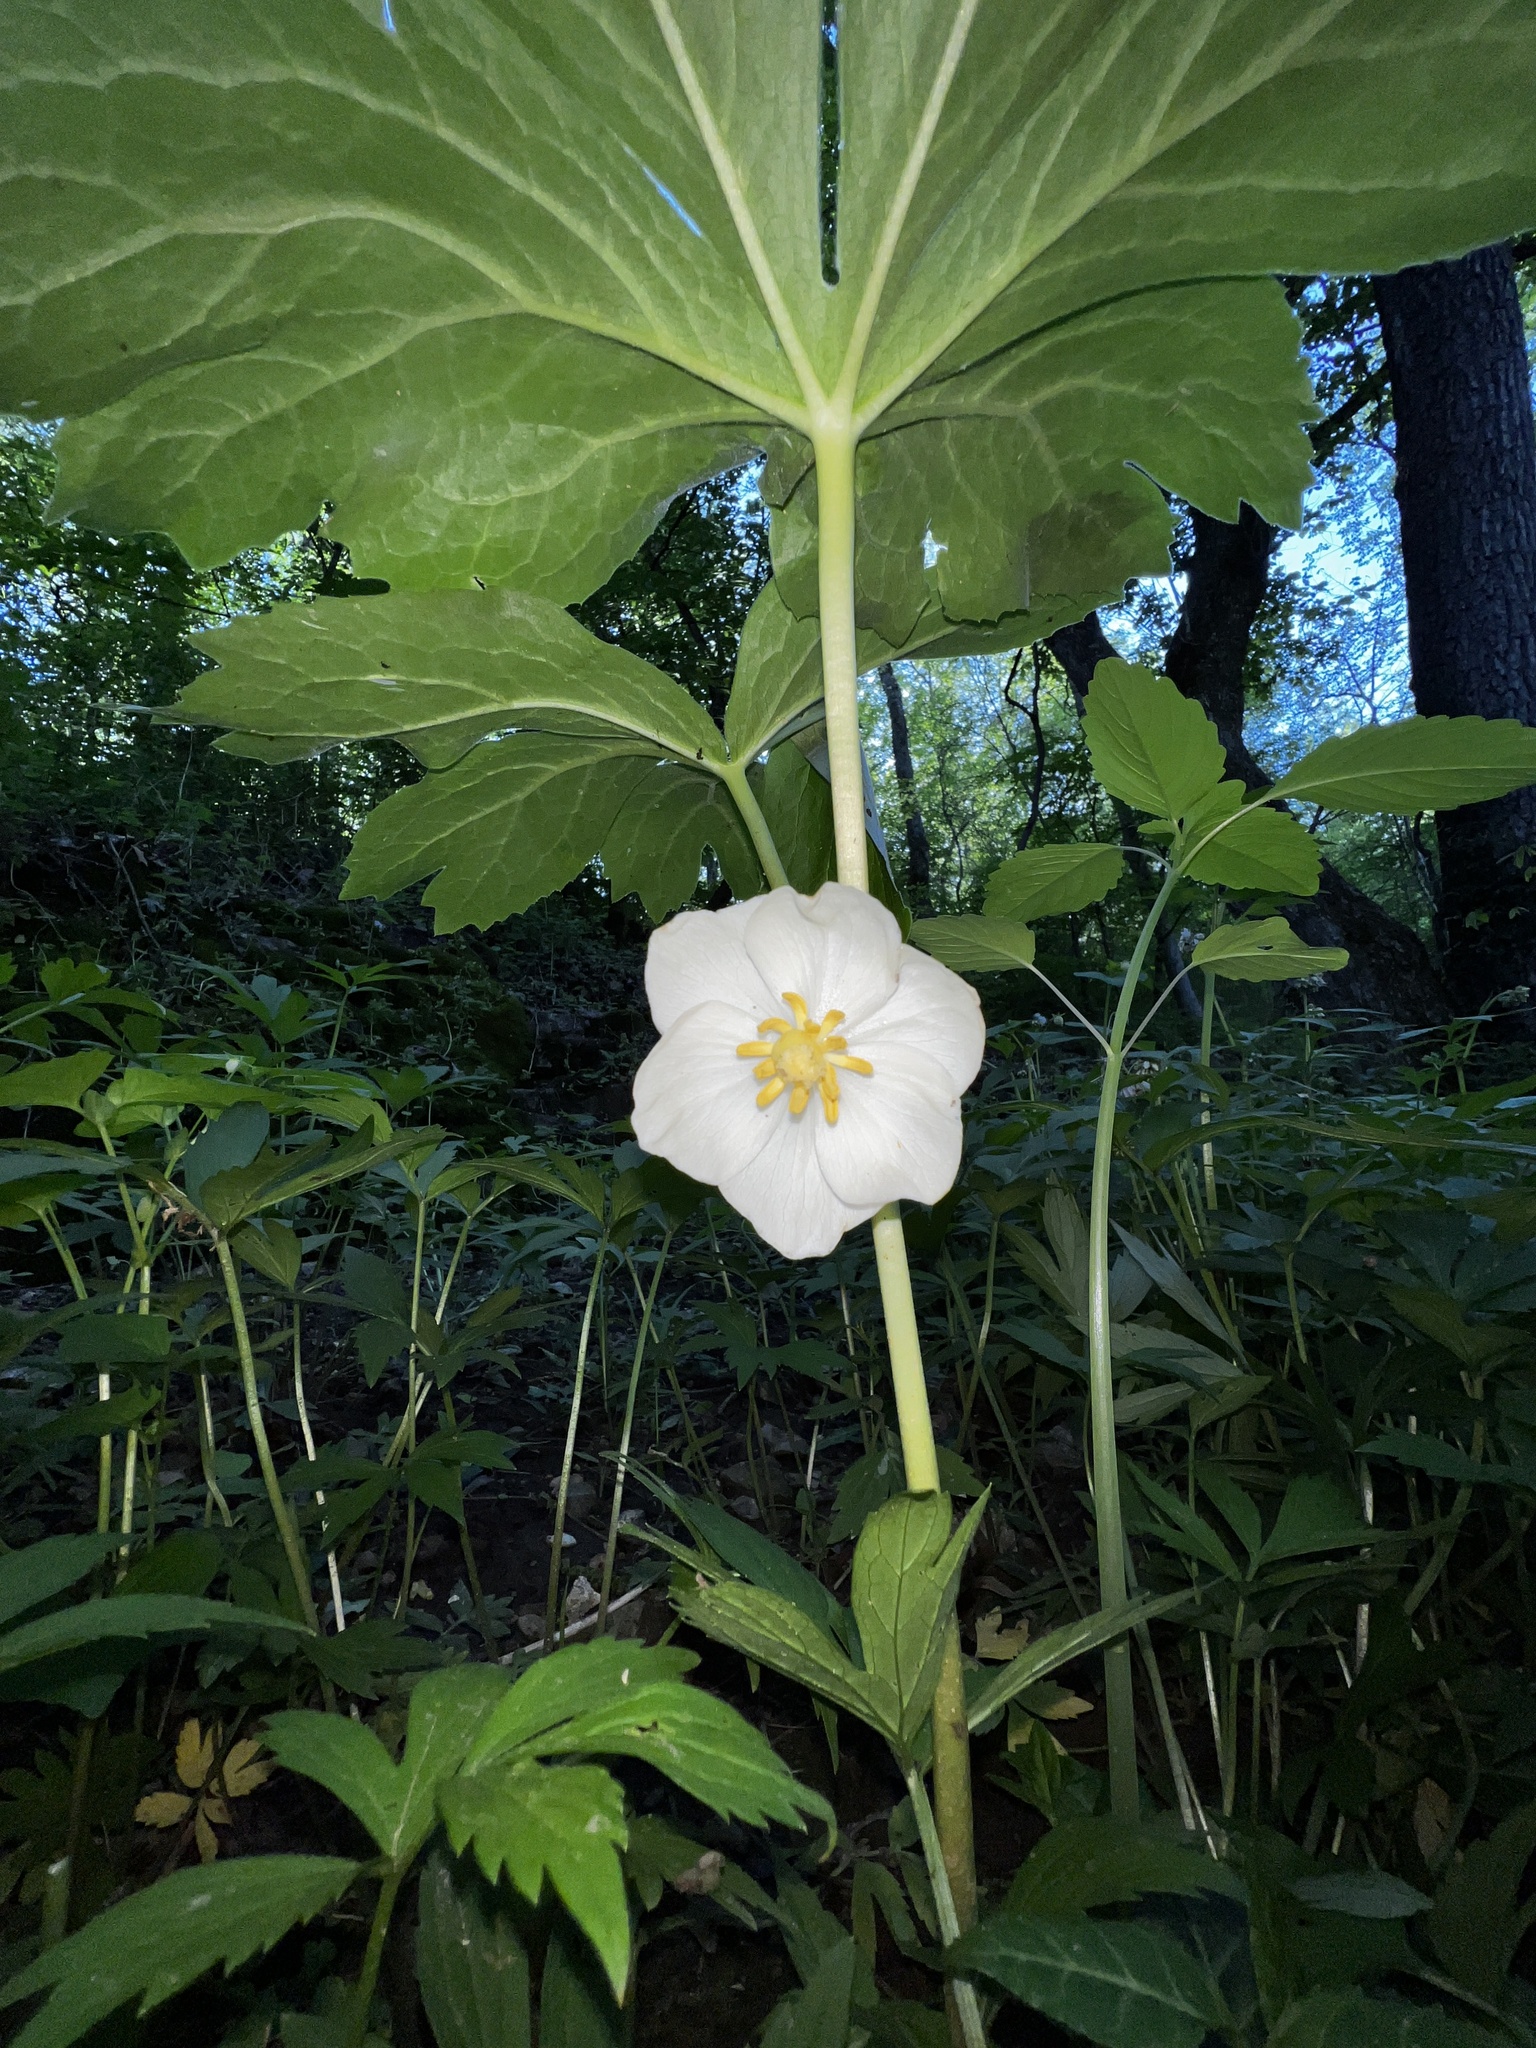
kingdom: Plantae
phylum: Tracheophyta
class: Magnoliopsida
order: Ranunculales
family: Berberidaceae
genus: Podophyllum
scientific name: Podophyllum peltatum
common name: Wild mandrake
